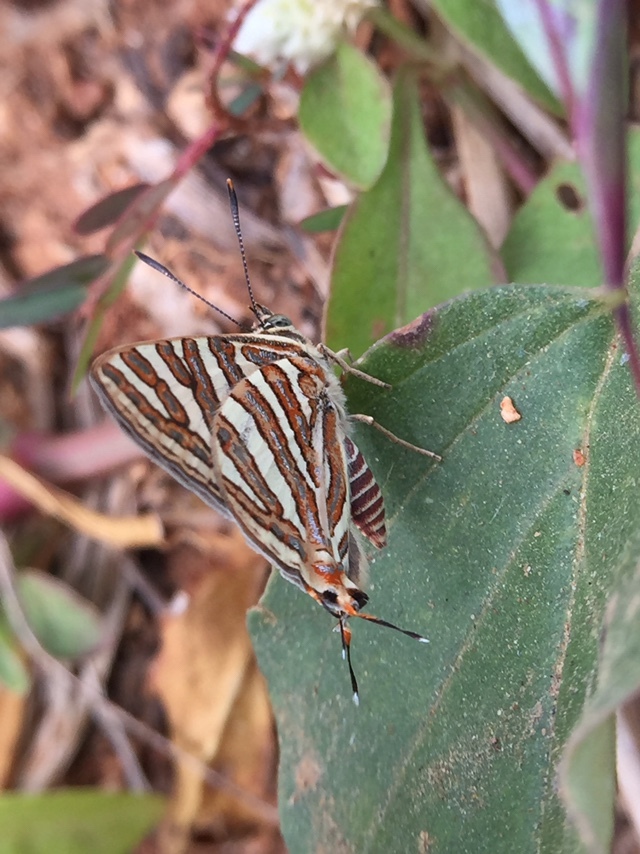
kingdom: Animalia
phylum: Arthropoda
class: Insecta
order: Lepidoptera
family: Lycaenidae
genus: Cigaritis
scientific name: Cigaritis vulcanus
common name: Common silverline
